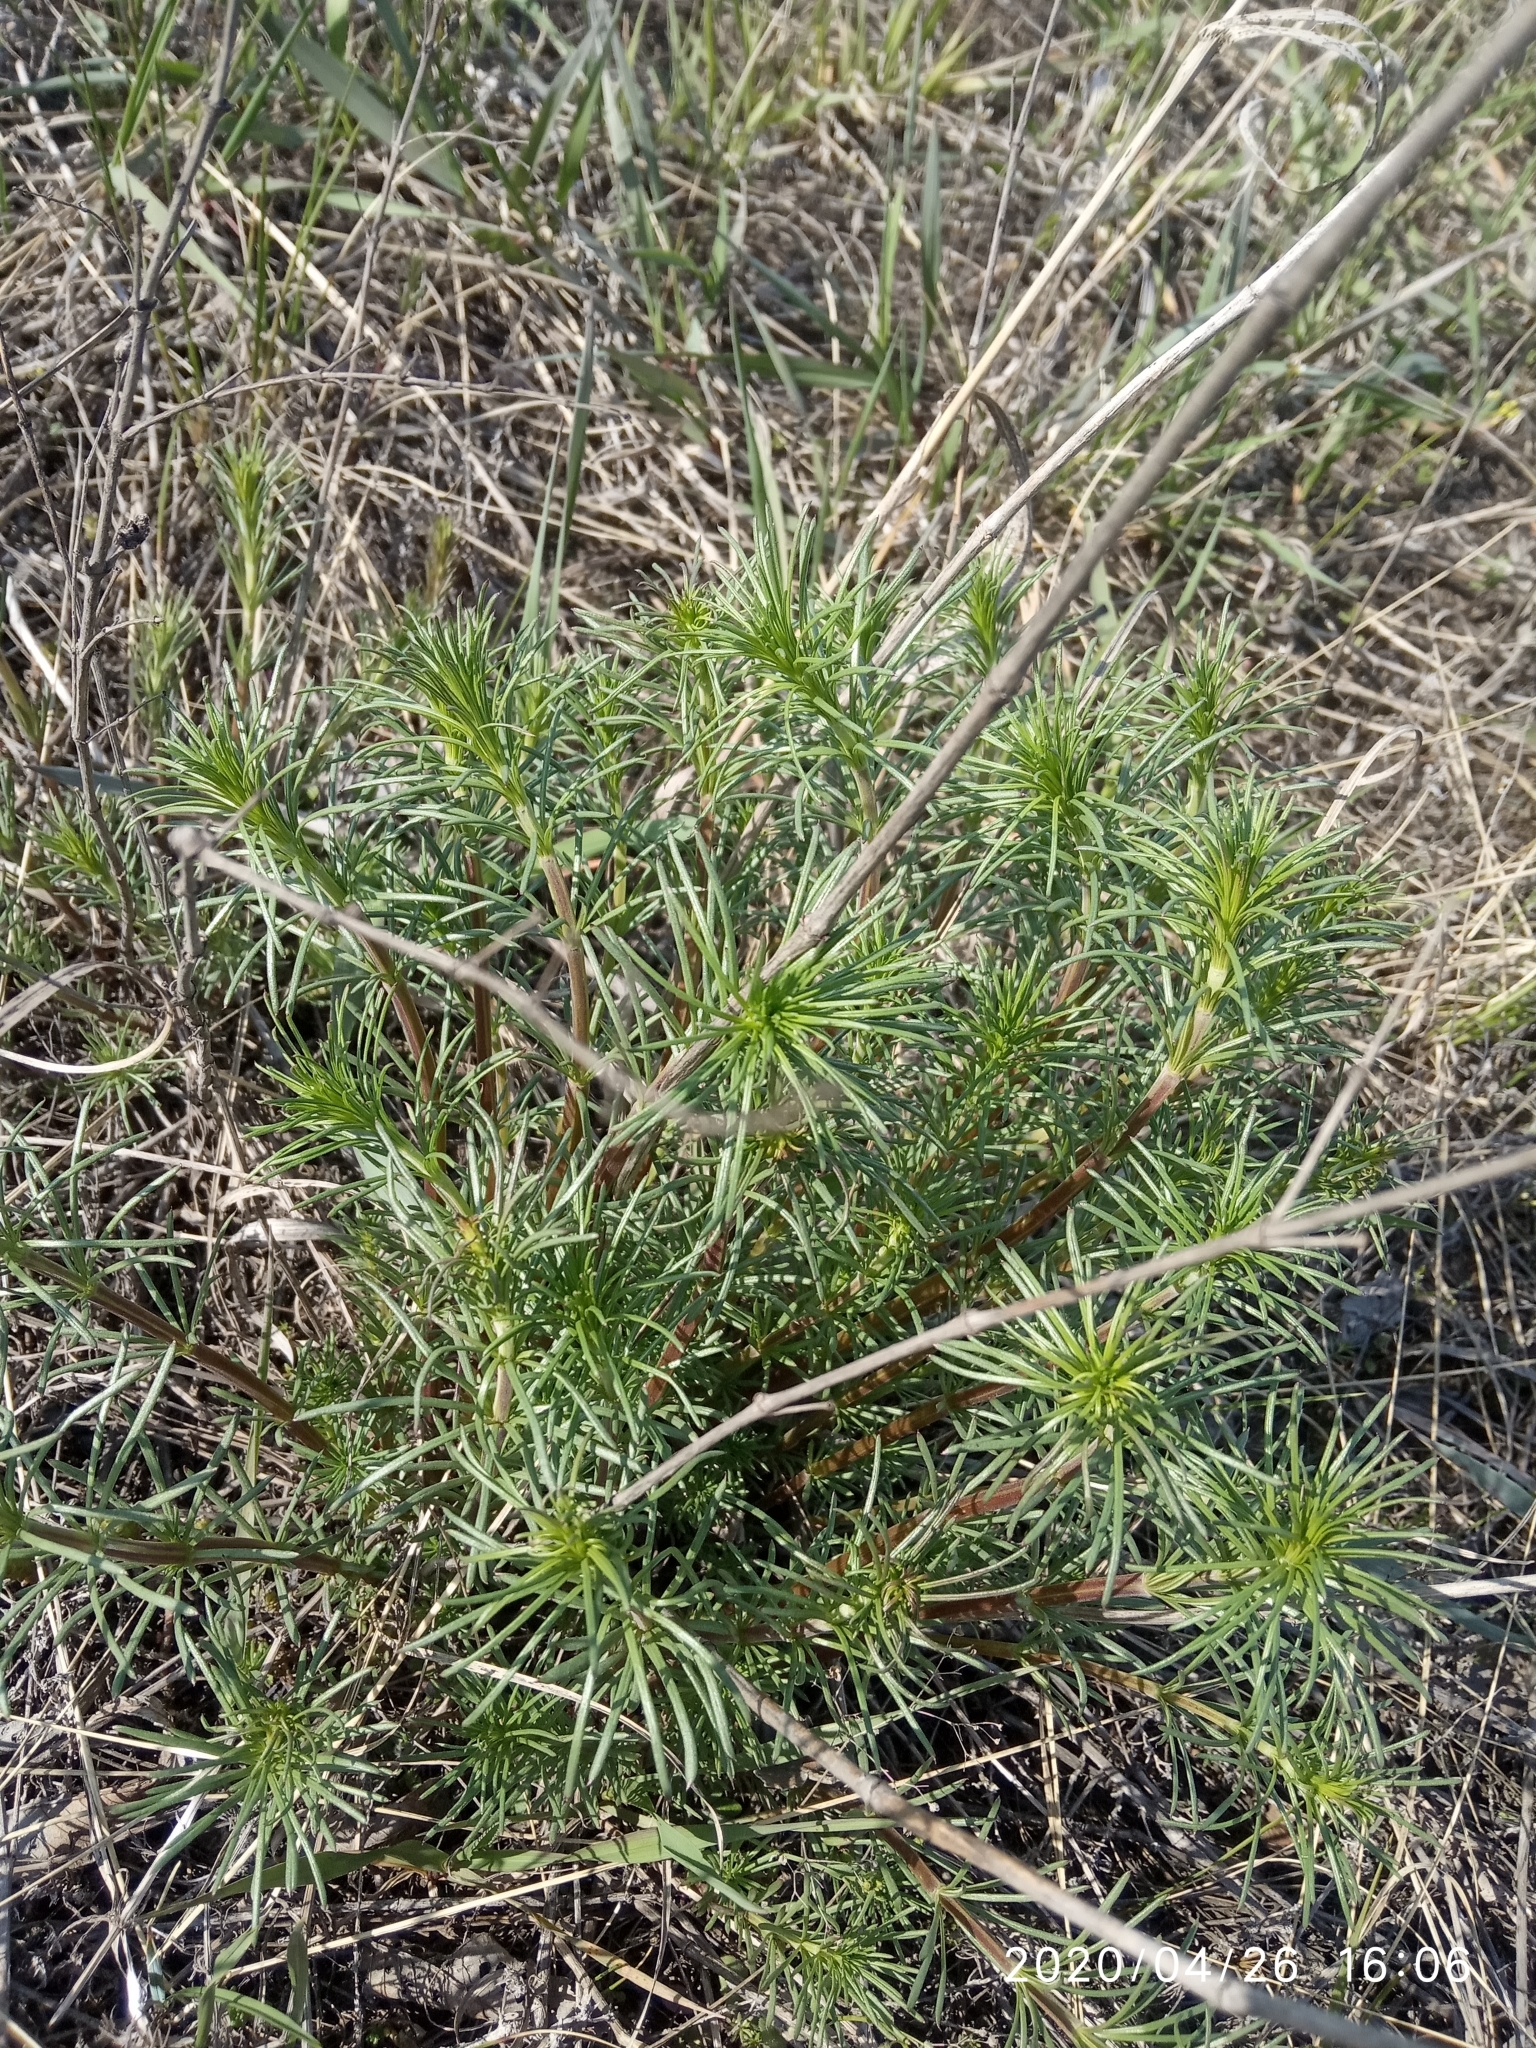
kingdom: Plantae
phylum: Tracheophyta
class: Magnoliopsida
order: Gentianales
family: Rubiaceae
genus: Galium
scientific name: Galium verum
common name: Lady's bedstraw
